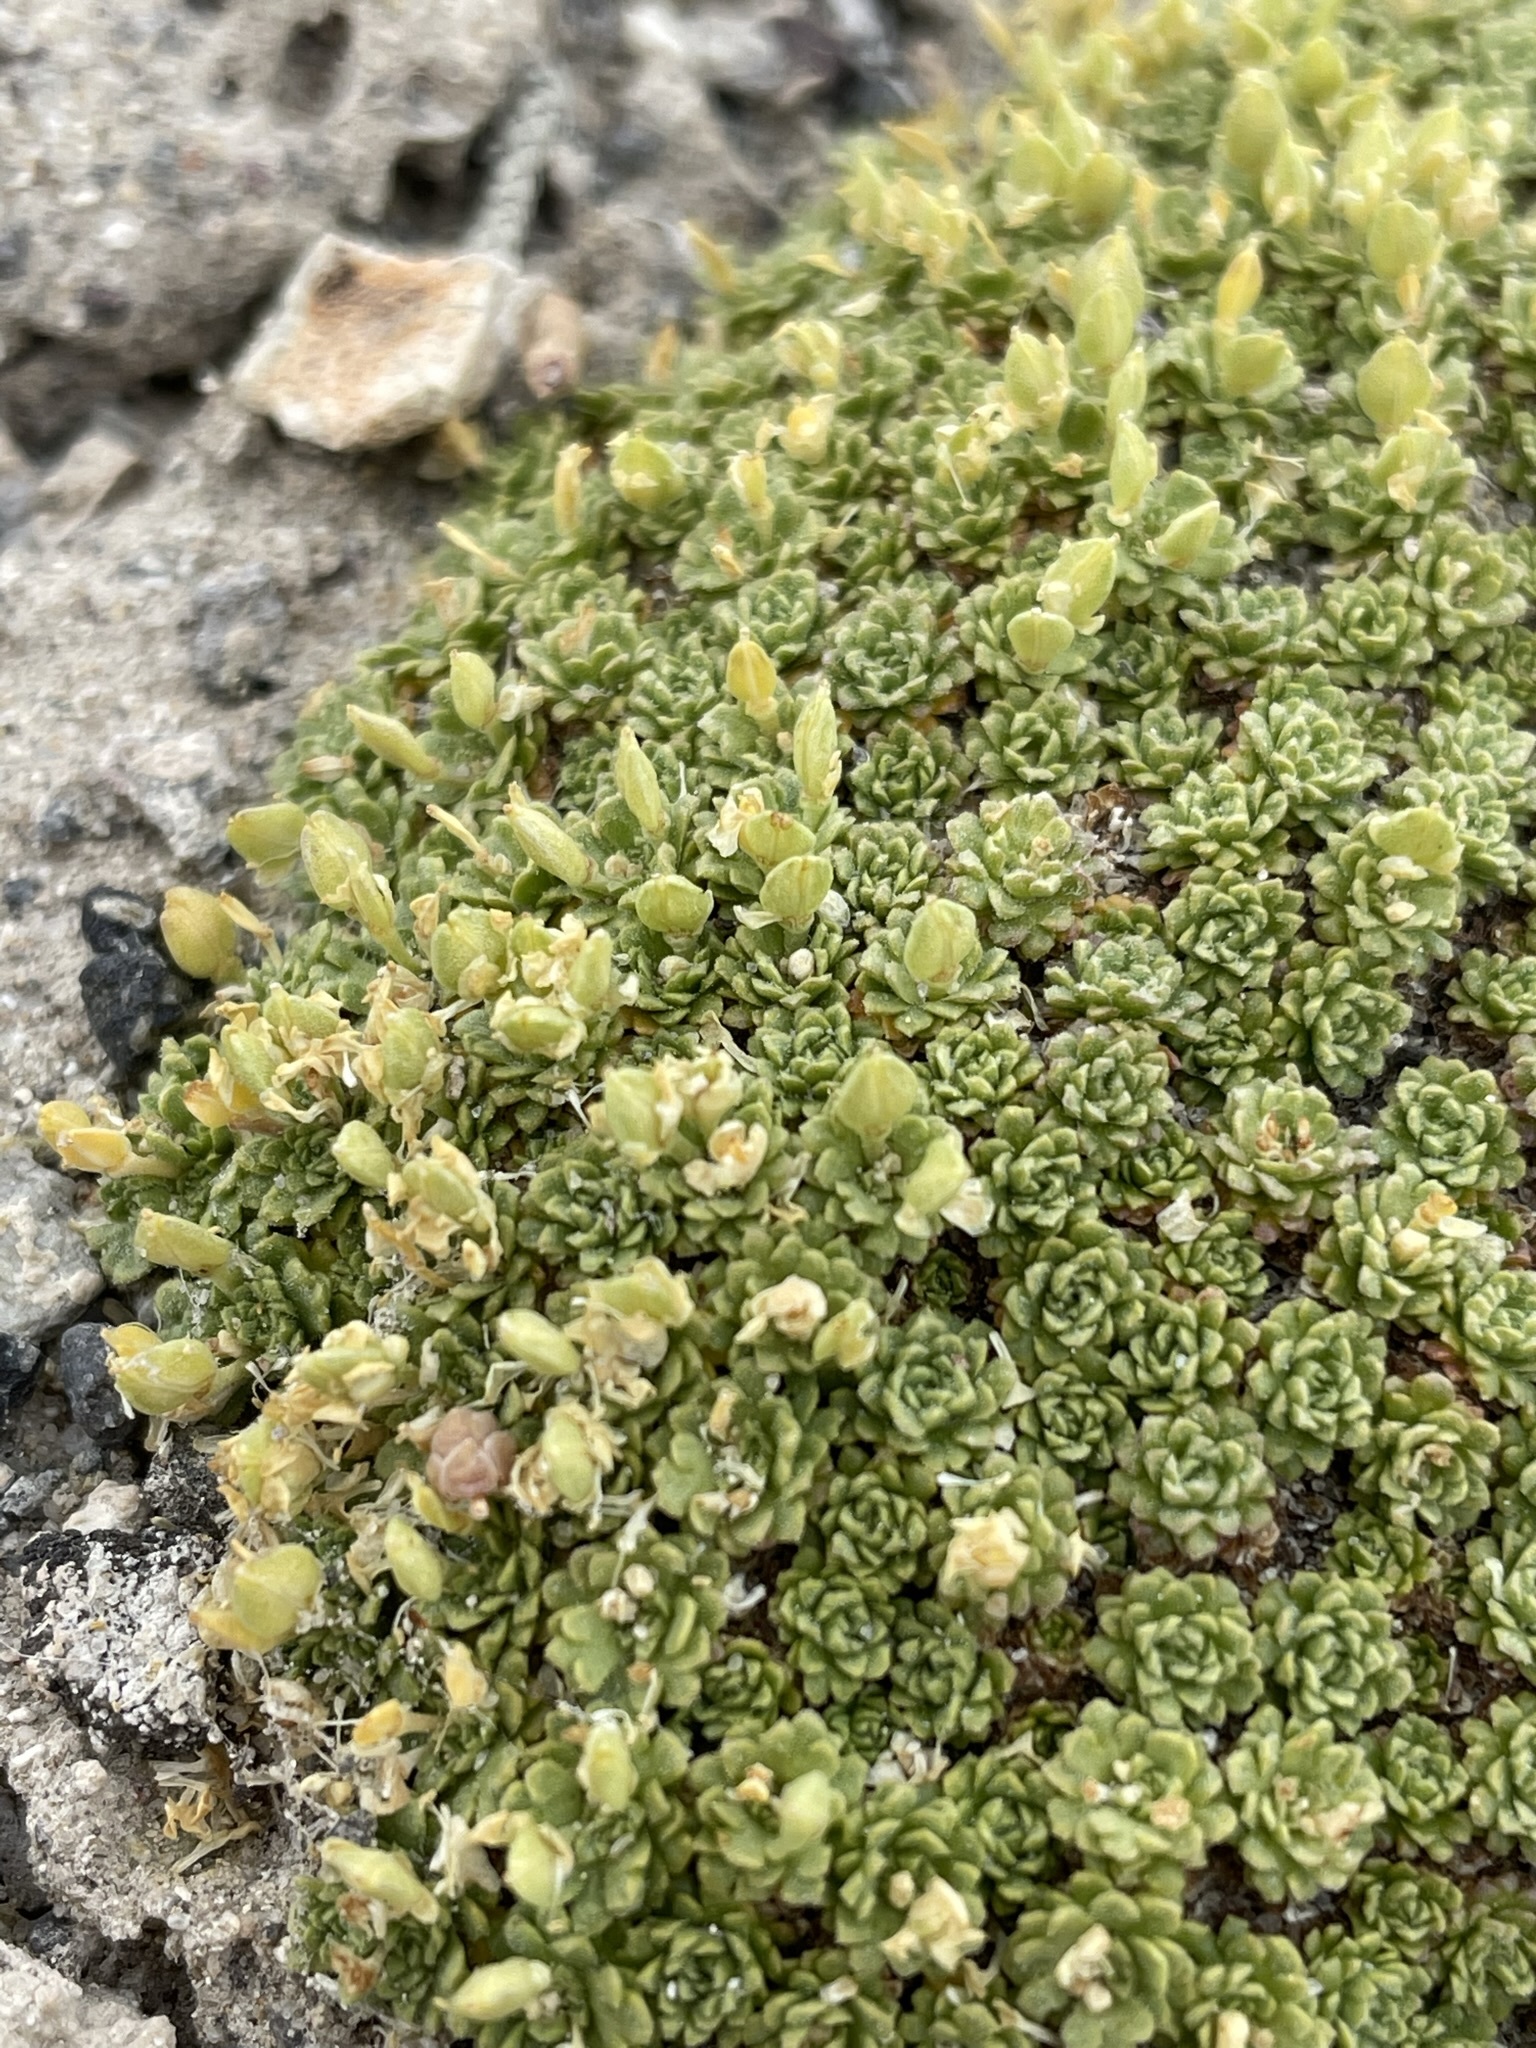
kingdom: Plantae
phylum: Tracheophyta
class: Magnoliopsida
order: Brassicales
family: Brassicaceae
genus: Lepidium
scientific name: Lepidium nanum
